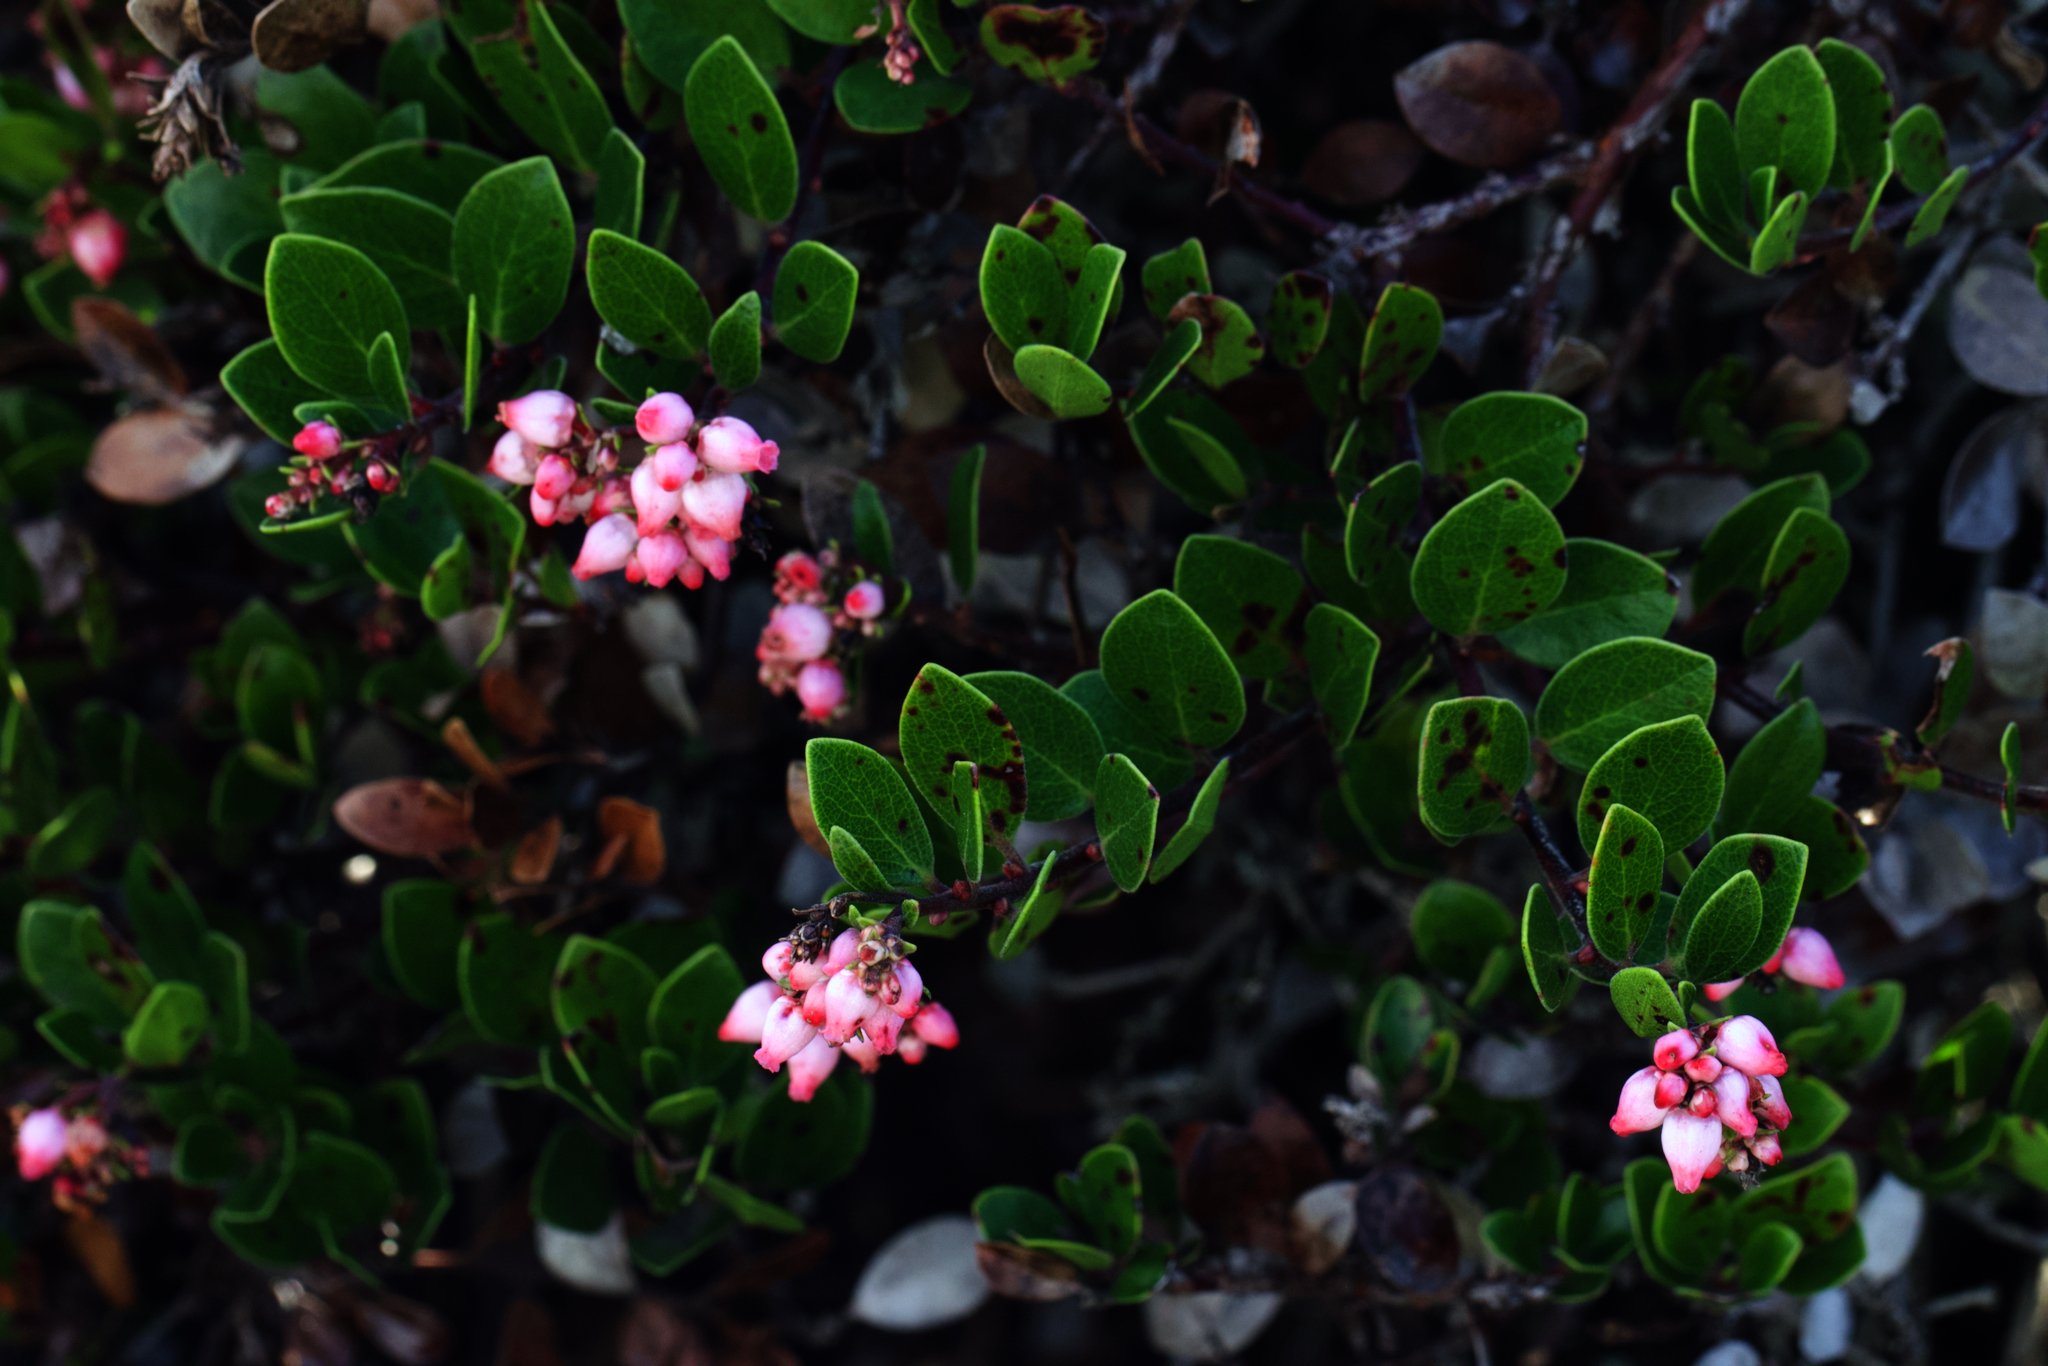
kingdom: Plantae
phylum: Tracheophyta
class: Magnoliopsida
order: Ericales
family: Ericaceae
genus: Arctostaphylos
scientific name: Arctostaphylos uva-ursi
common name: Bearberry
